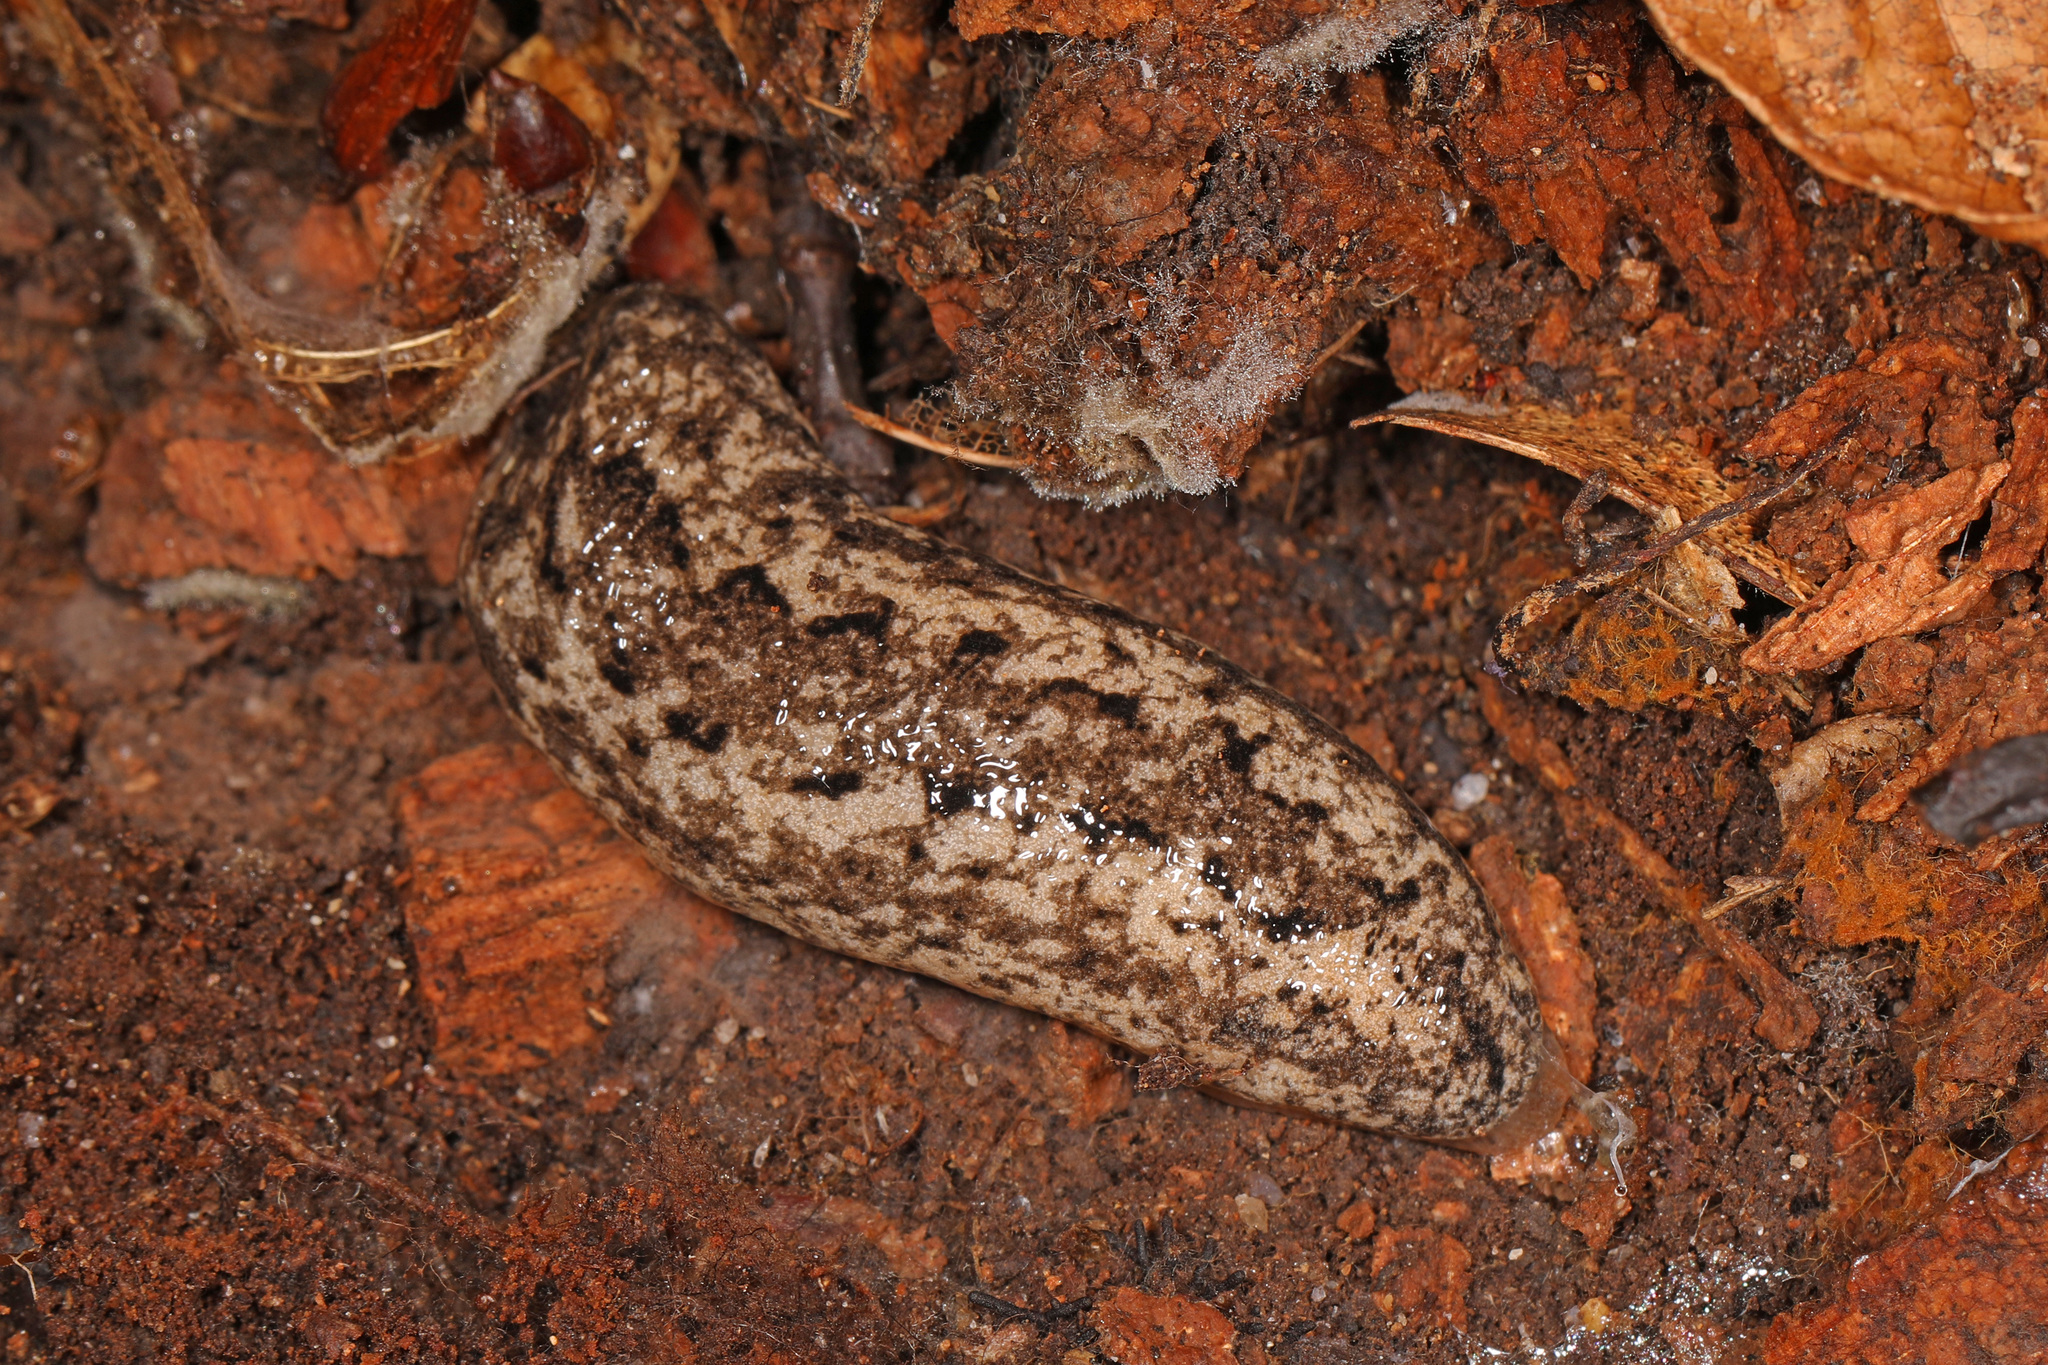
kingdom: Animalia
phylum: Mollusca
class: Gastropoda
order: Stylommatophora
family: Philomycidae
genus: Philomycus
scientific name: Philomycus carolinianus
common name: Carolina mantleslug
